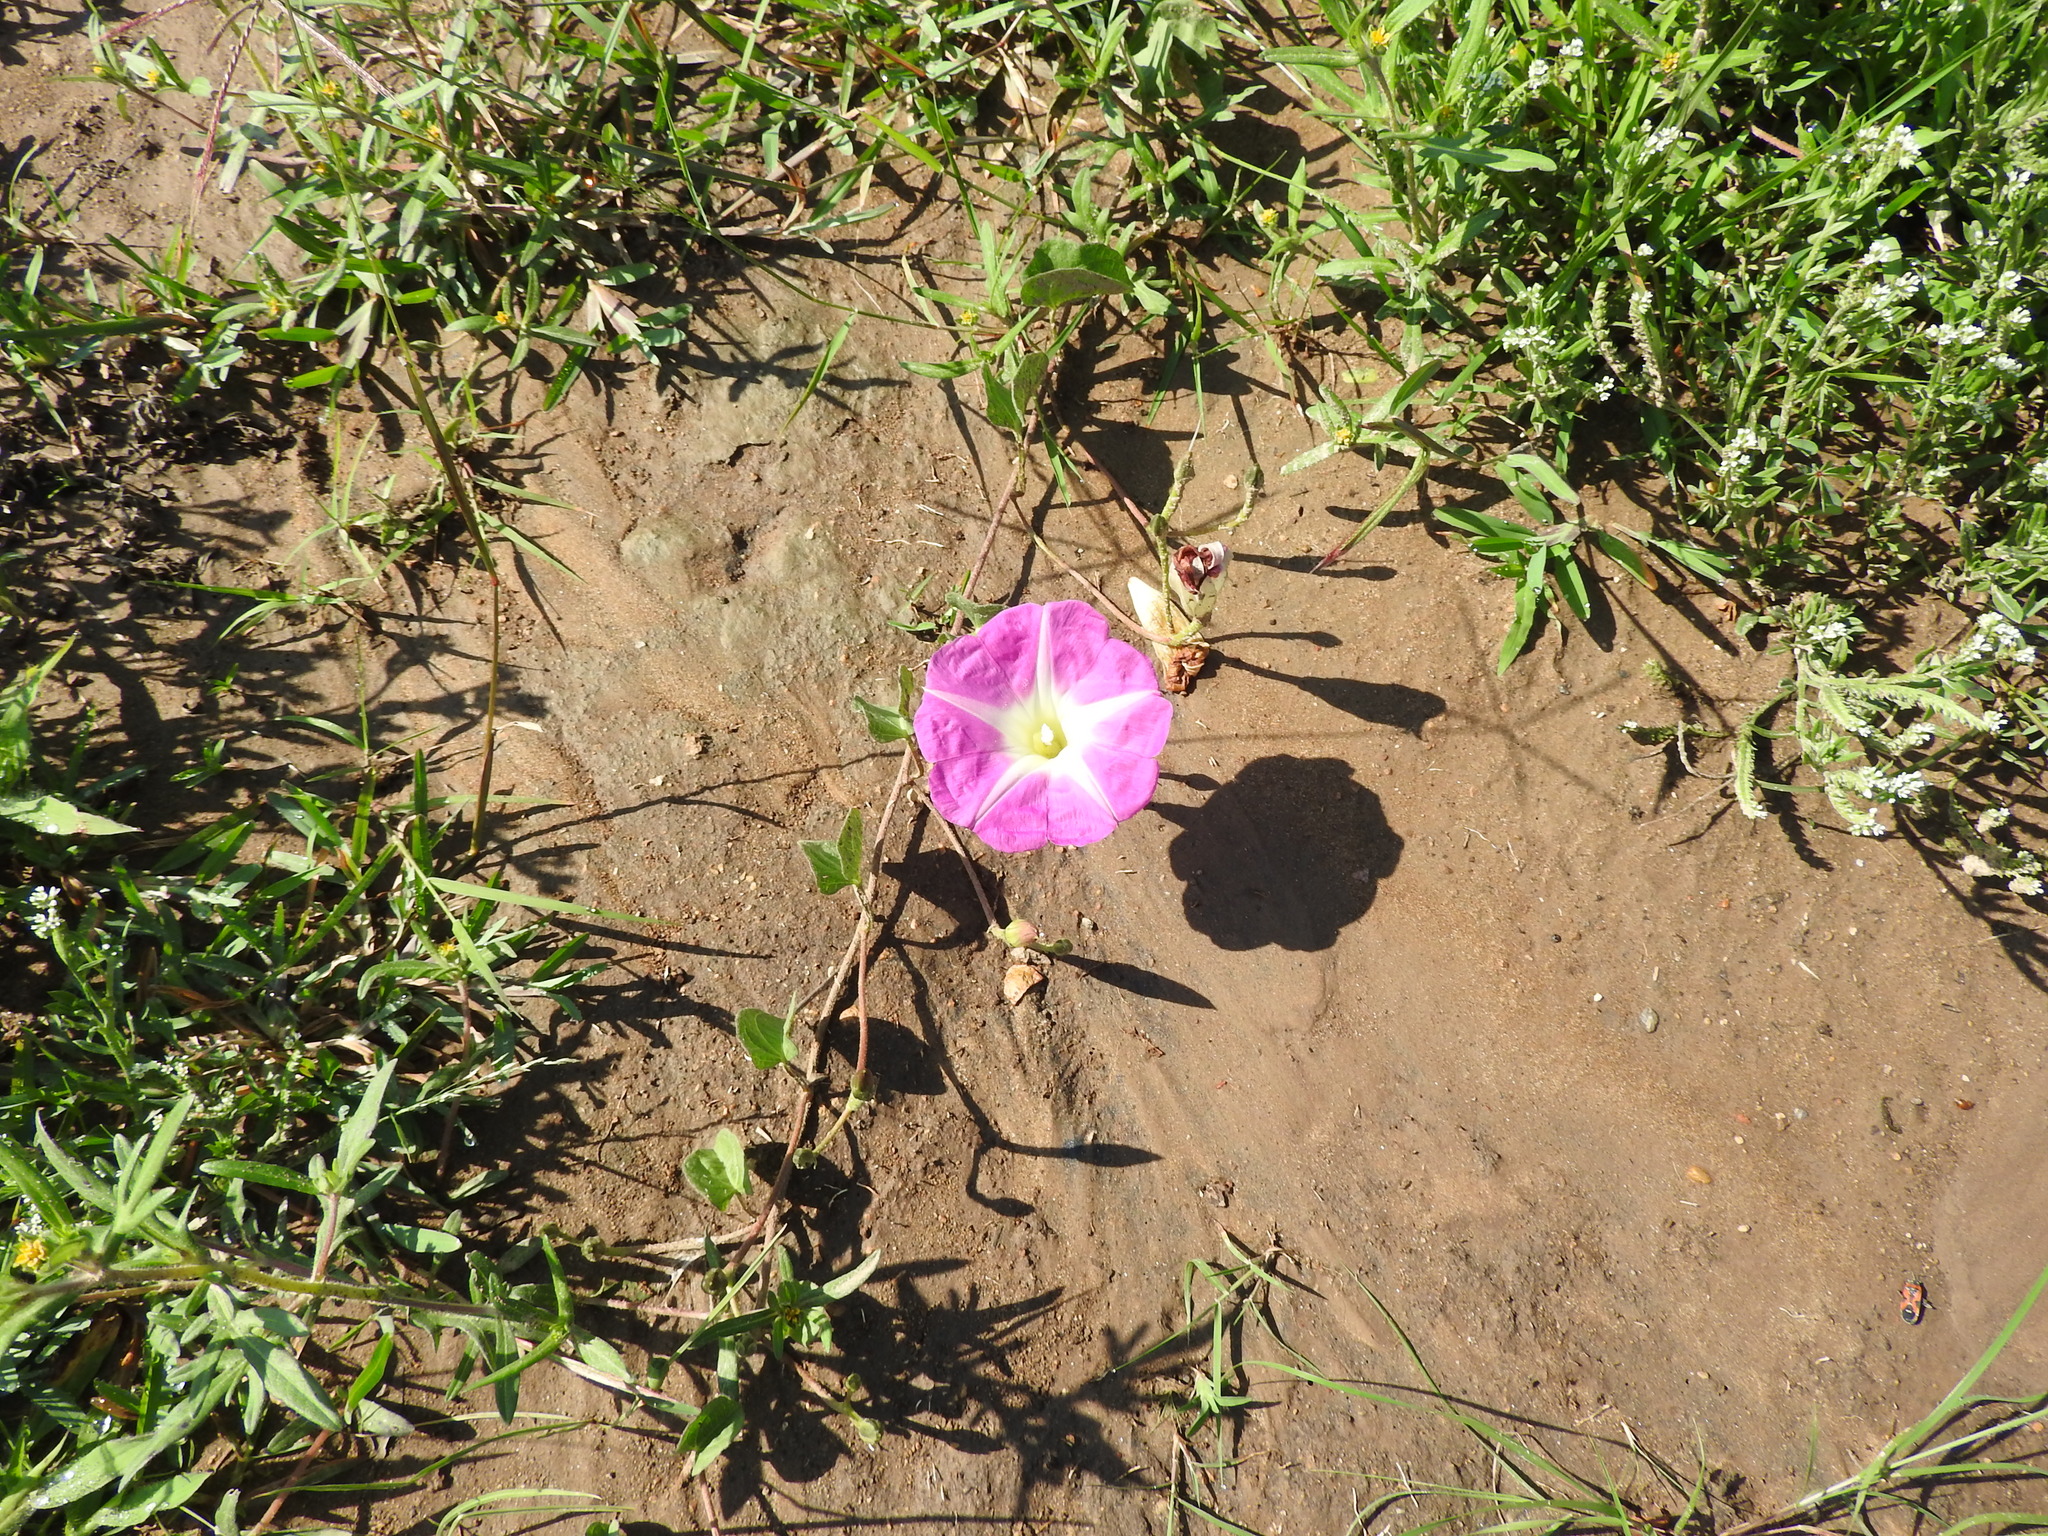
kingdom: Plantae
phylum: Tracheophyta
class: Magnoliopsida
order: Solanales
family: Convolvulaceae
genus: Ipomoea
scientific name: Ipomoea hartwegii
